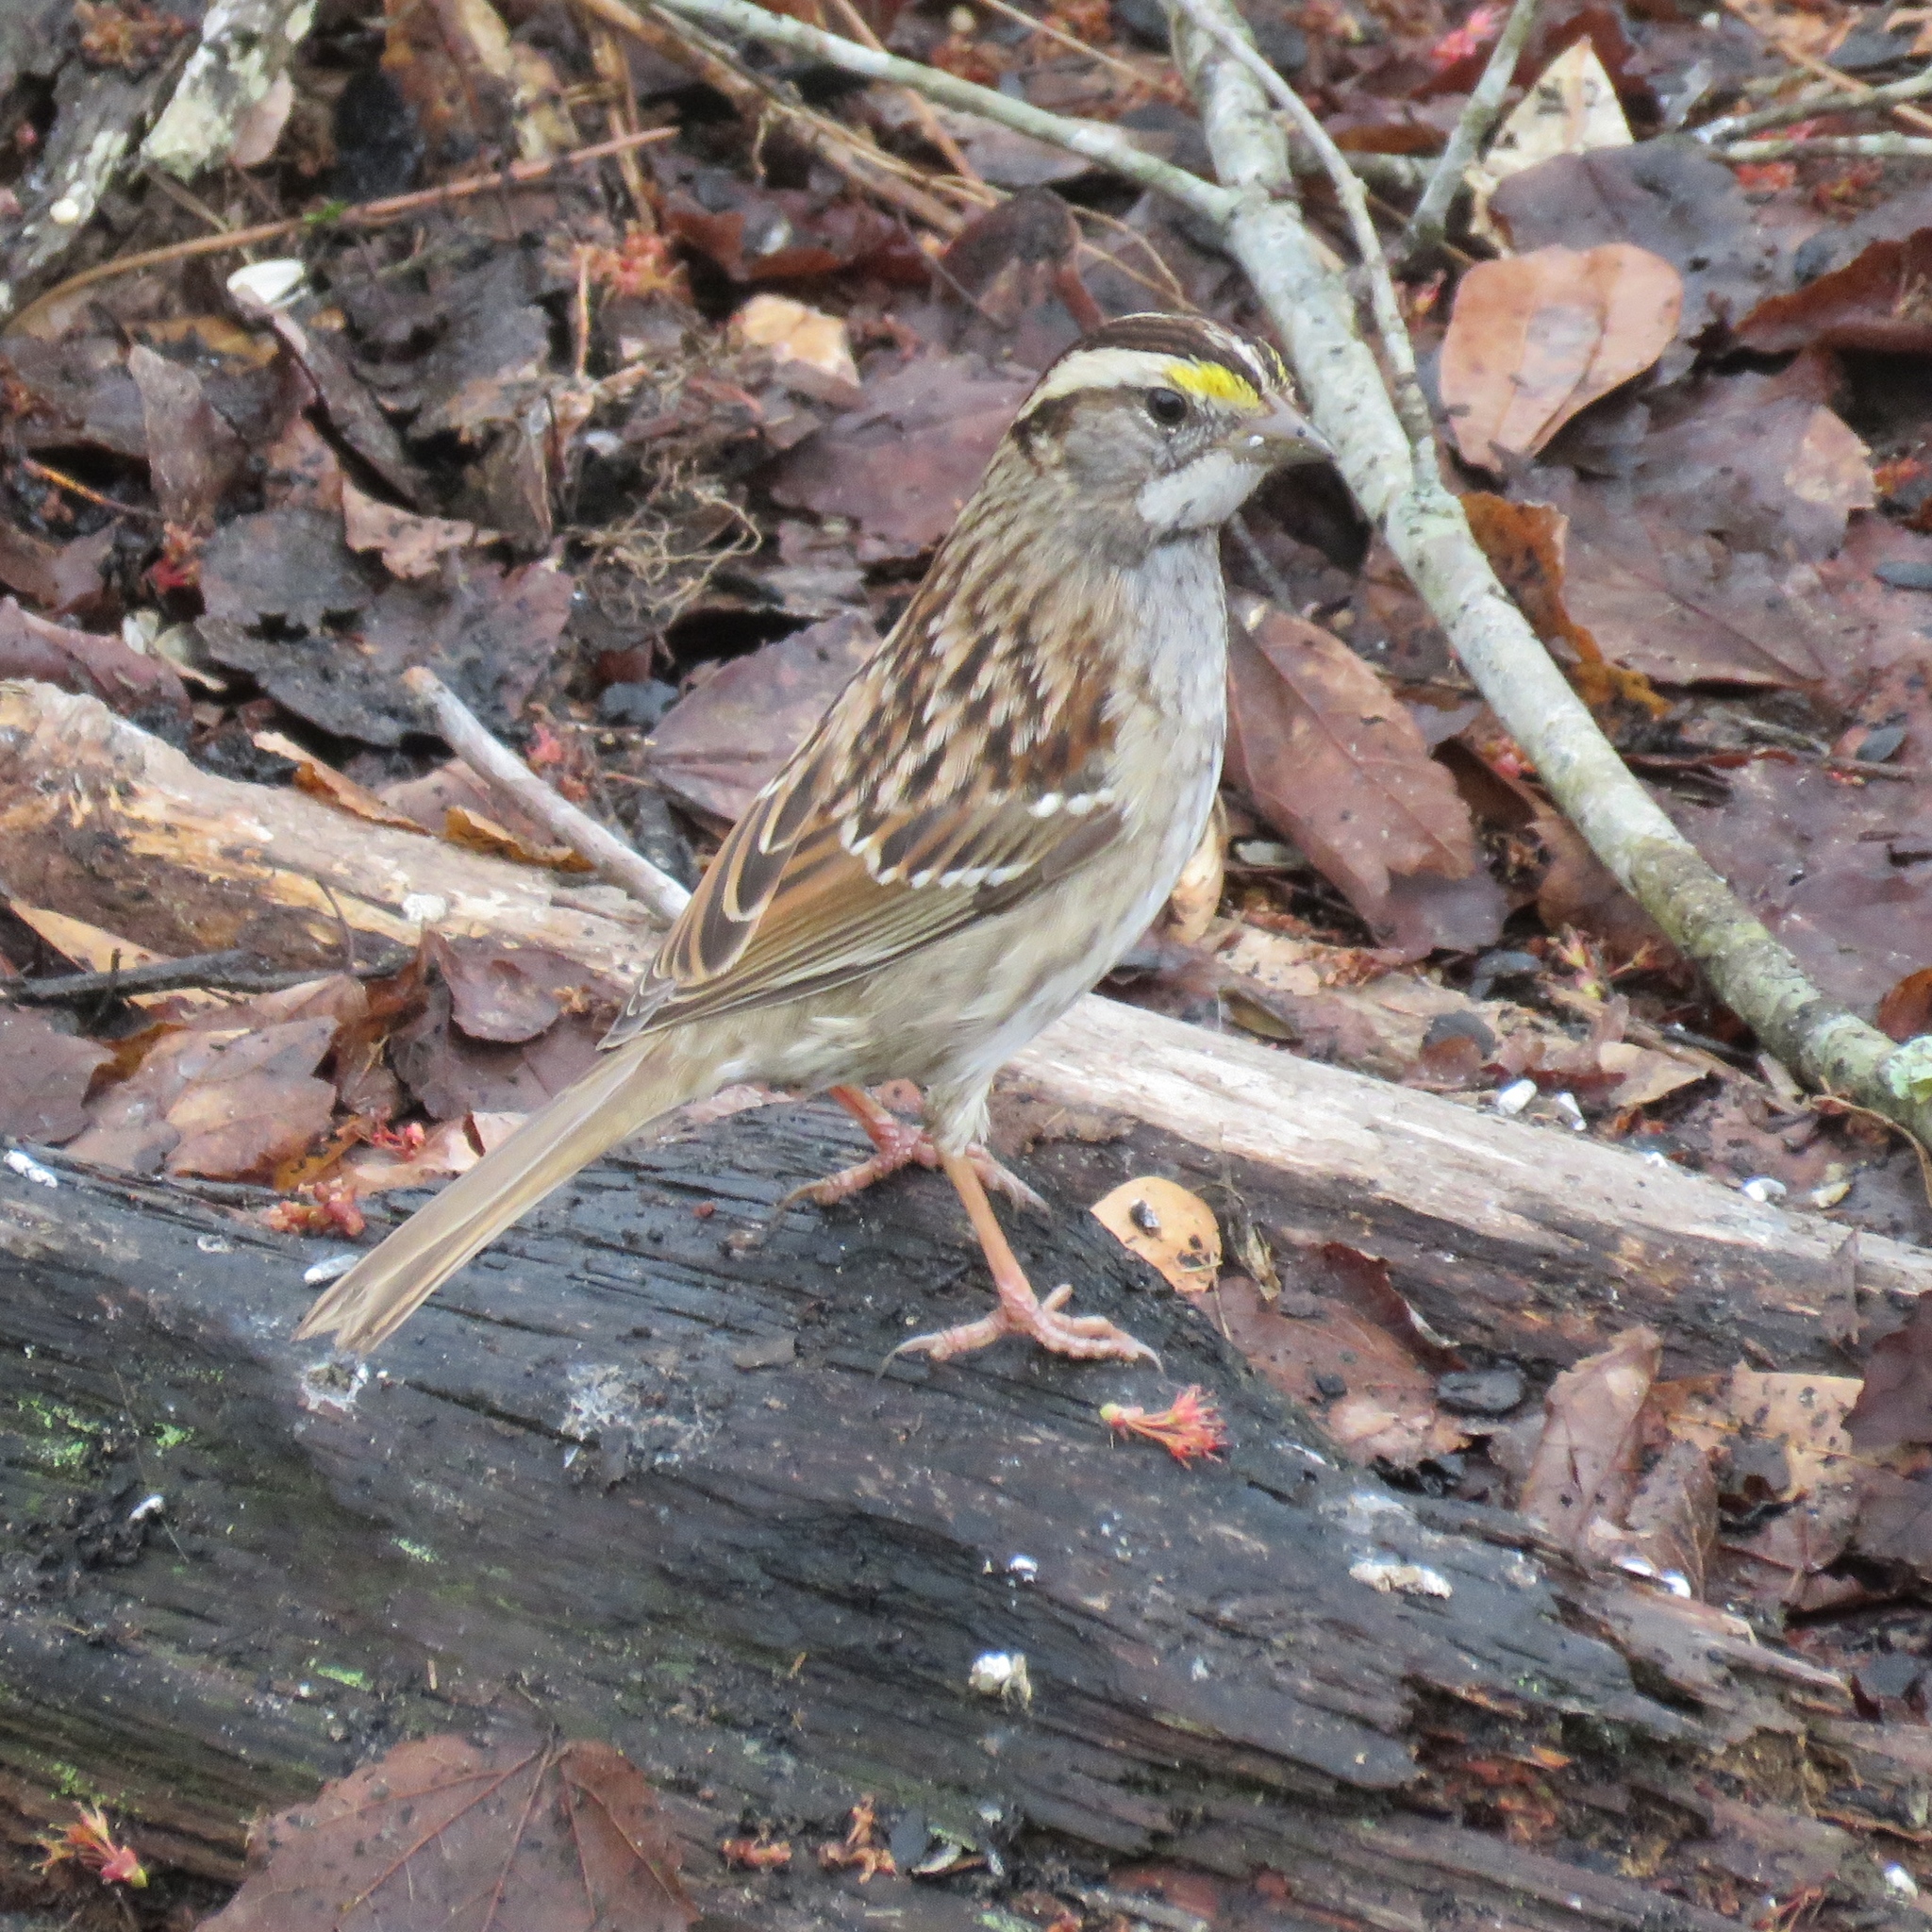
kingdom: Animalia
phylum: Chordata
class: Aves
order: Passeriformes
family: Passerellidae
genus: Zonotrichia
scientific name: Zonotrichia albicollis
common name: White-throated sparrow
